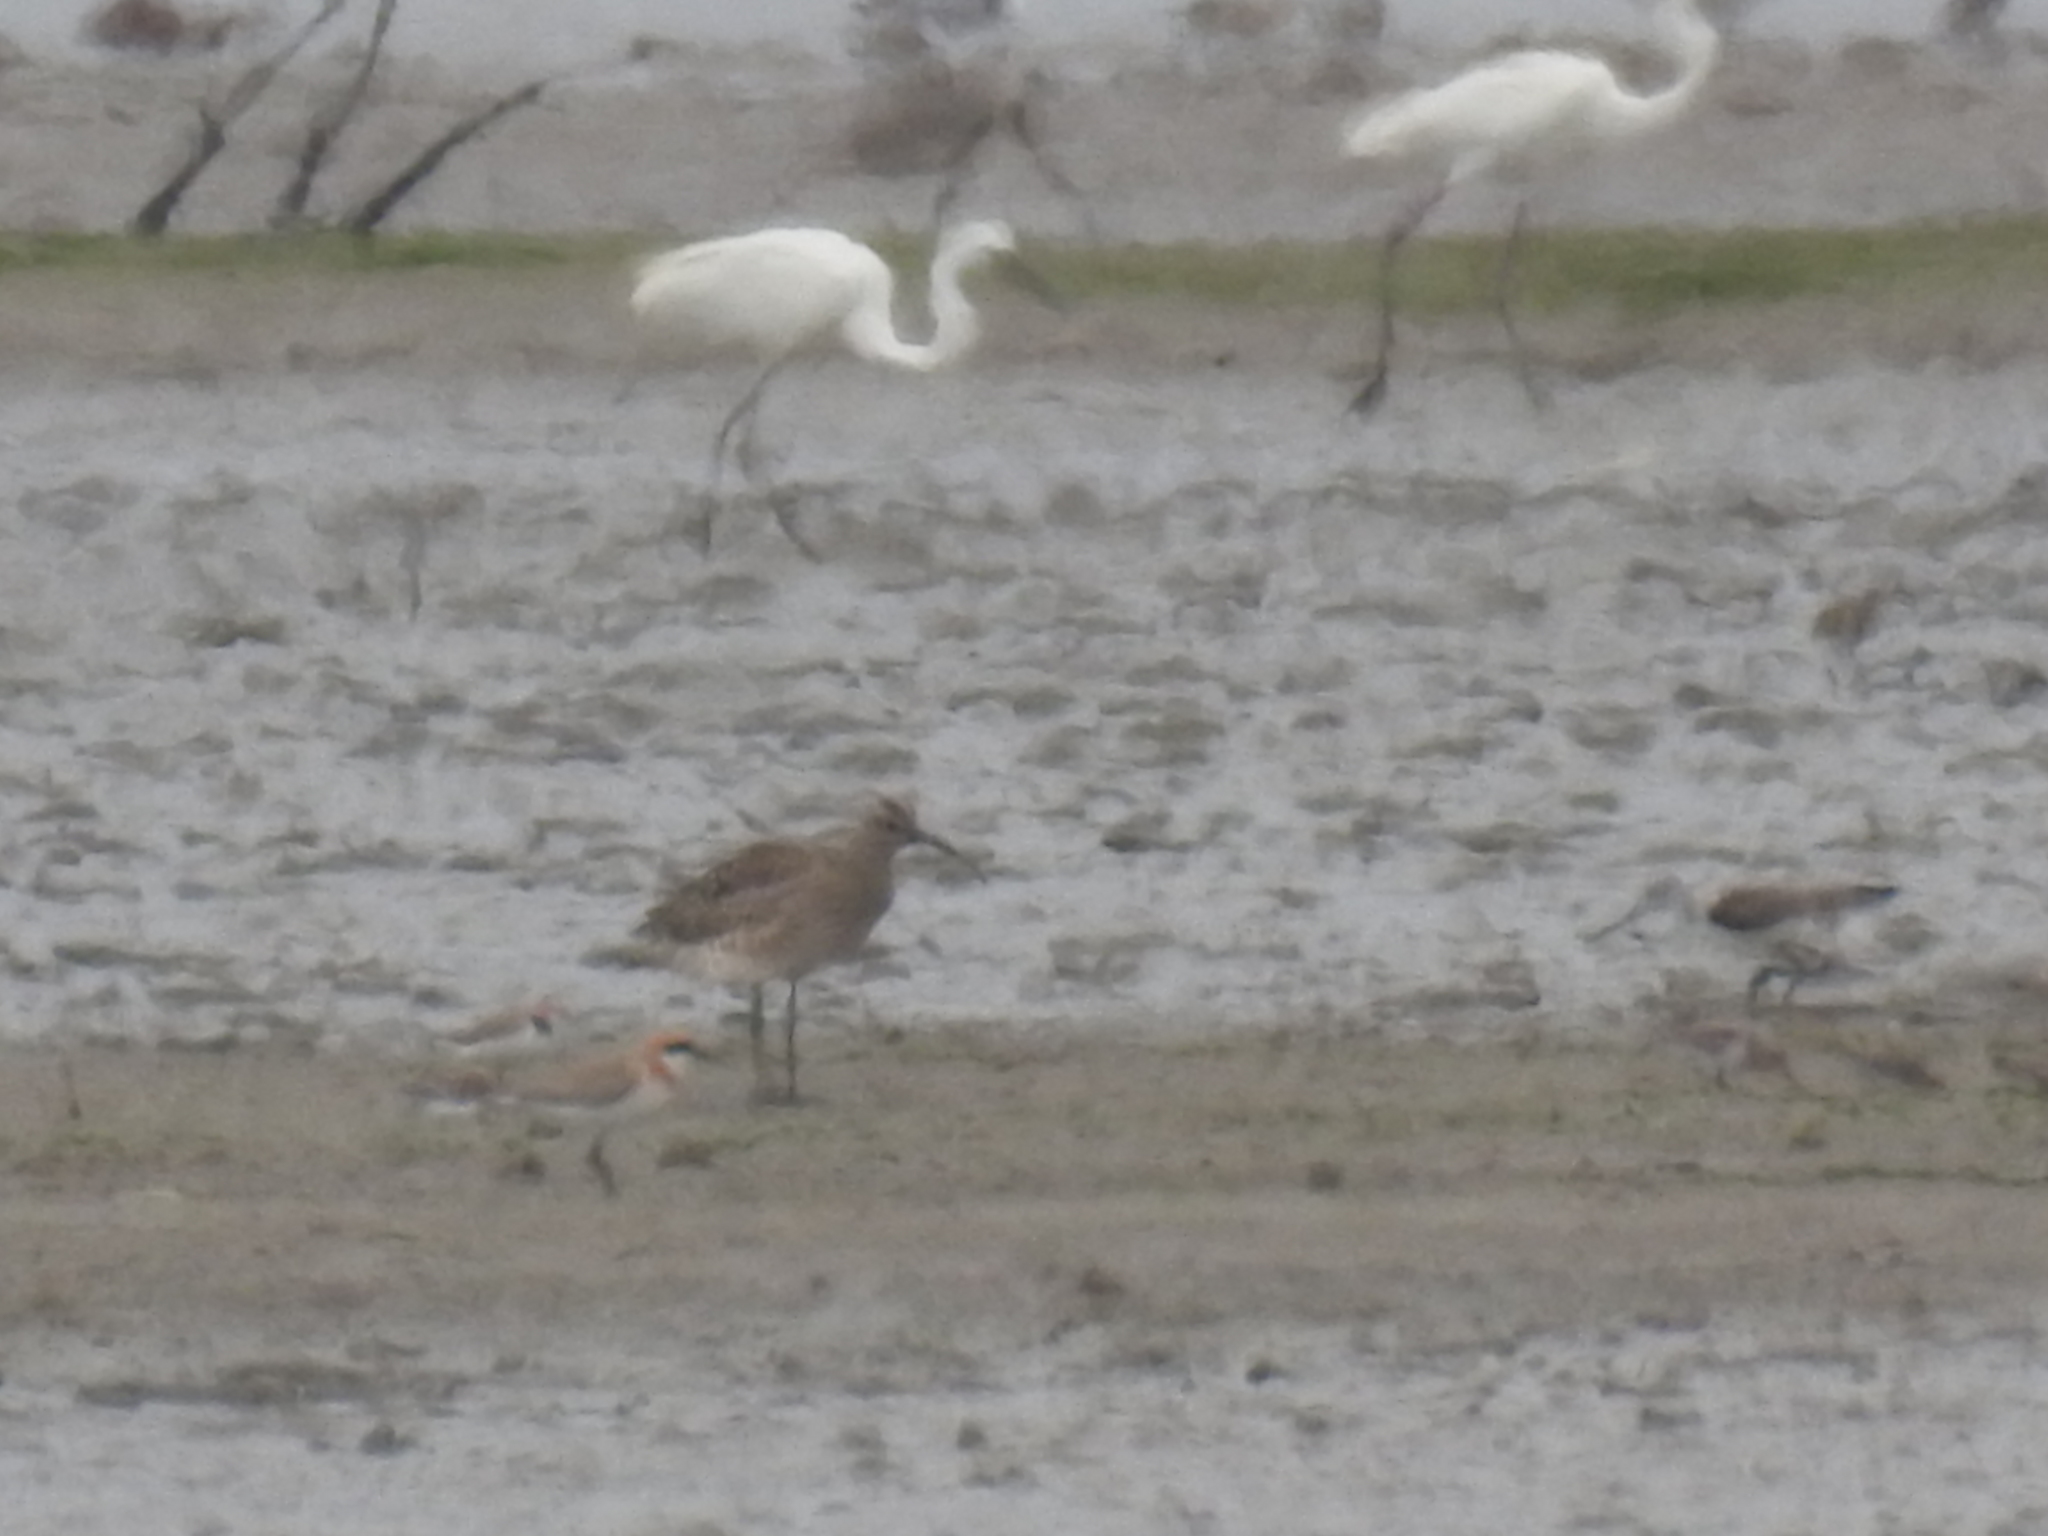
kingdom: Animalia
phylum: Chordata
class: Aves
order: Charadriiformes
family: Charadriidae
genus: Charadrius
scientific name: Charadrius alexandrinus
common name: Kentish plover
